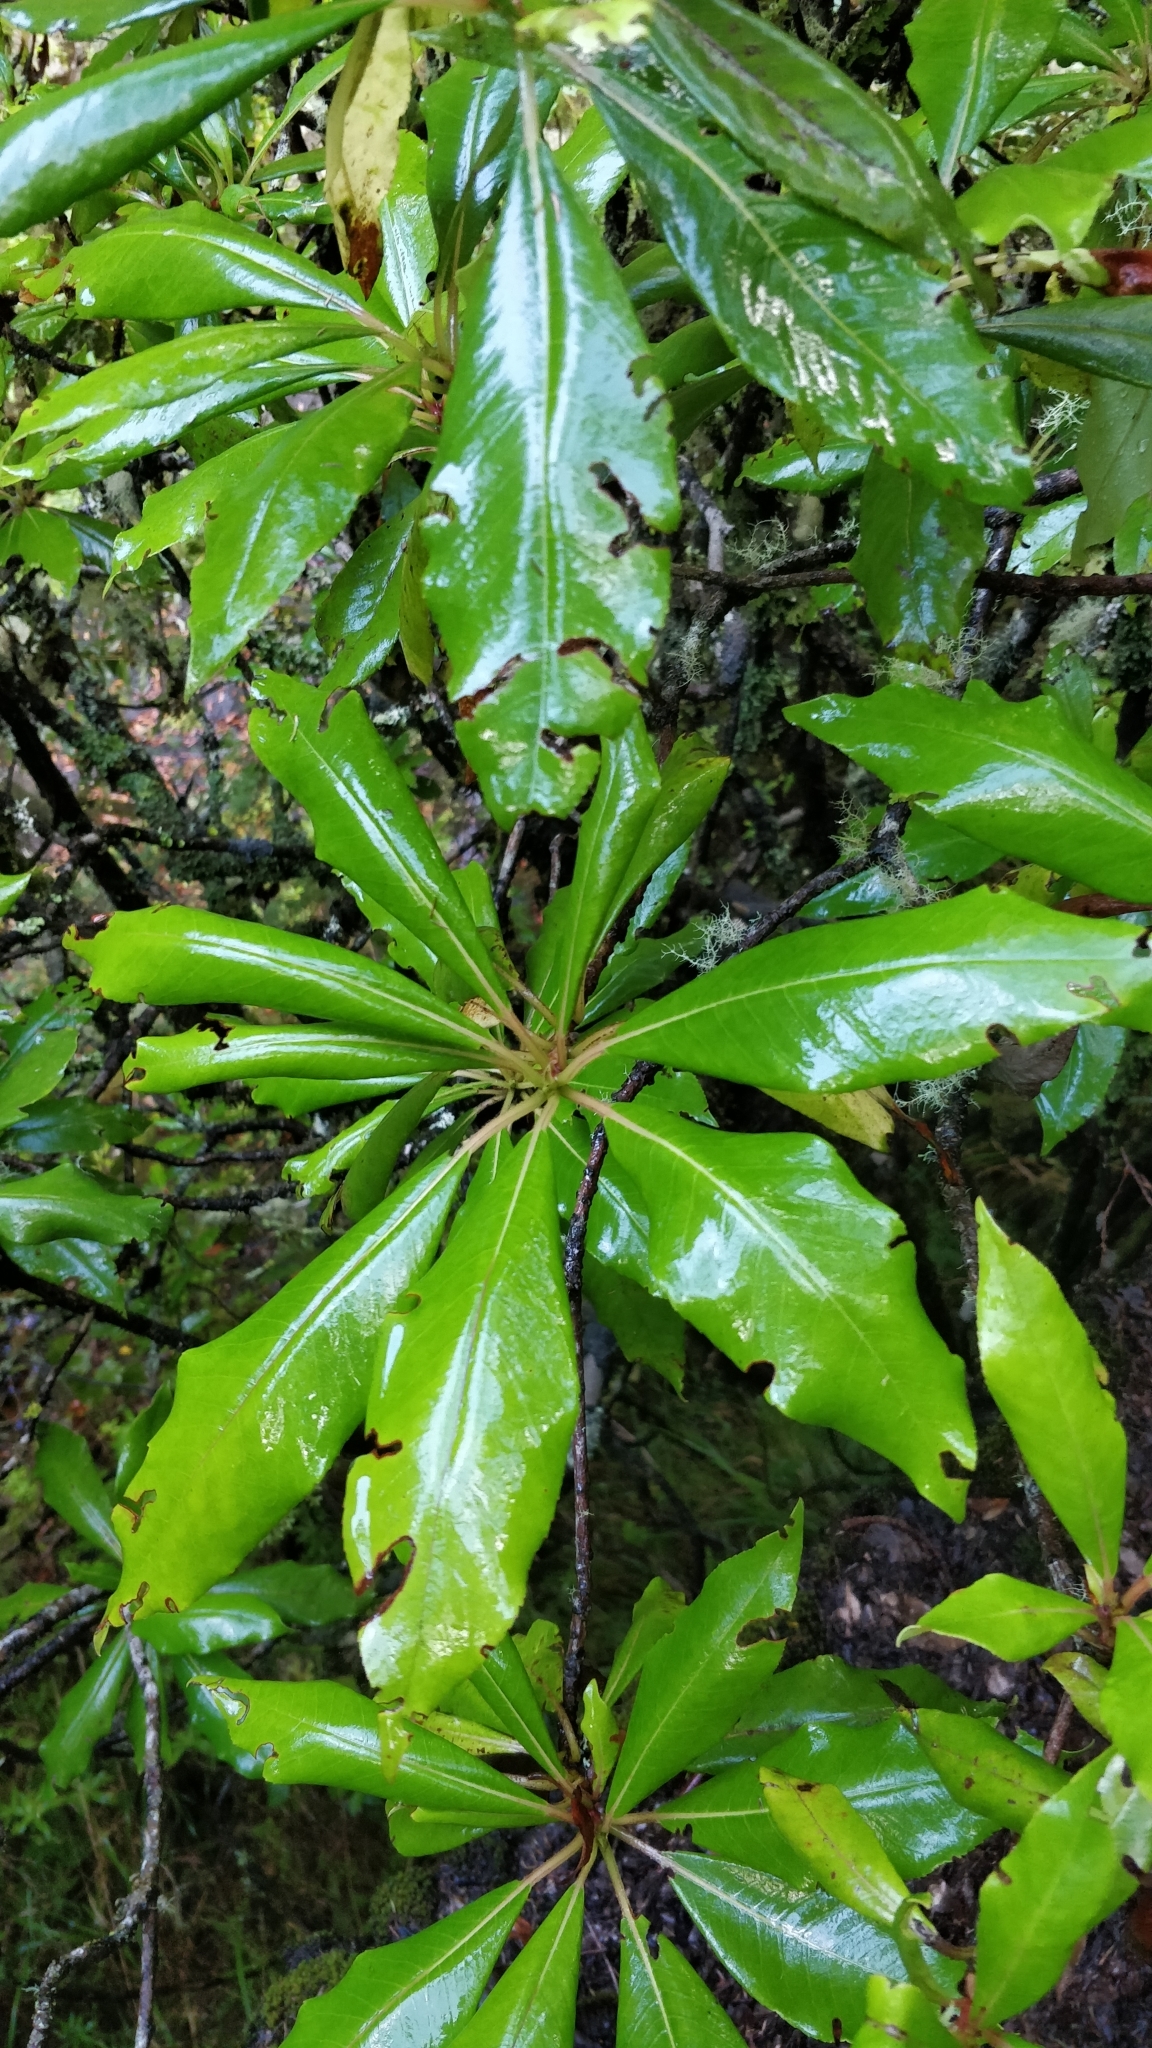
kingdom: Plantae
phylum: Tracheophyta
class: Magnoliopsida
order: Ericales
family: Clethraceae
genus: Clethra
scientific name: Clethra arborea
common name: Lily-of-the-valley-tree
